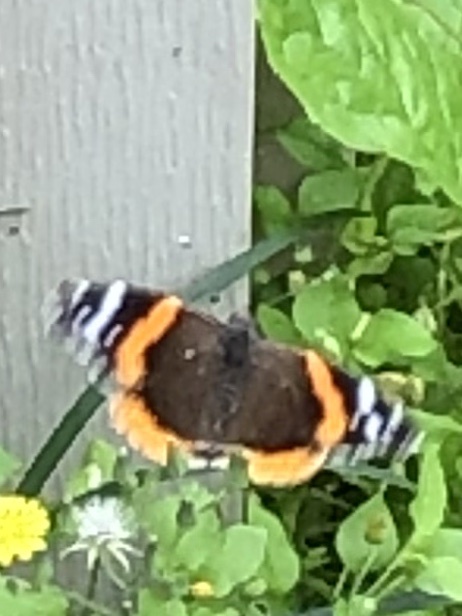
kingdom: Animalia
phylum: Arthropoda
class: Insecta
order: Lepidoptera
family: Nymphalidae
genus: Vanessa
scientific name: Vanessa atalanta
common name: Red admiral
